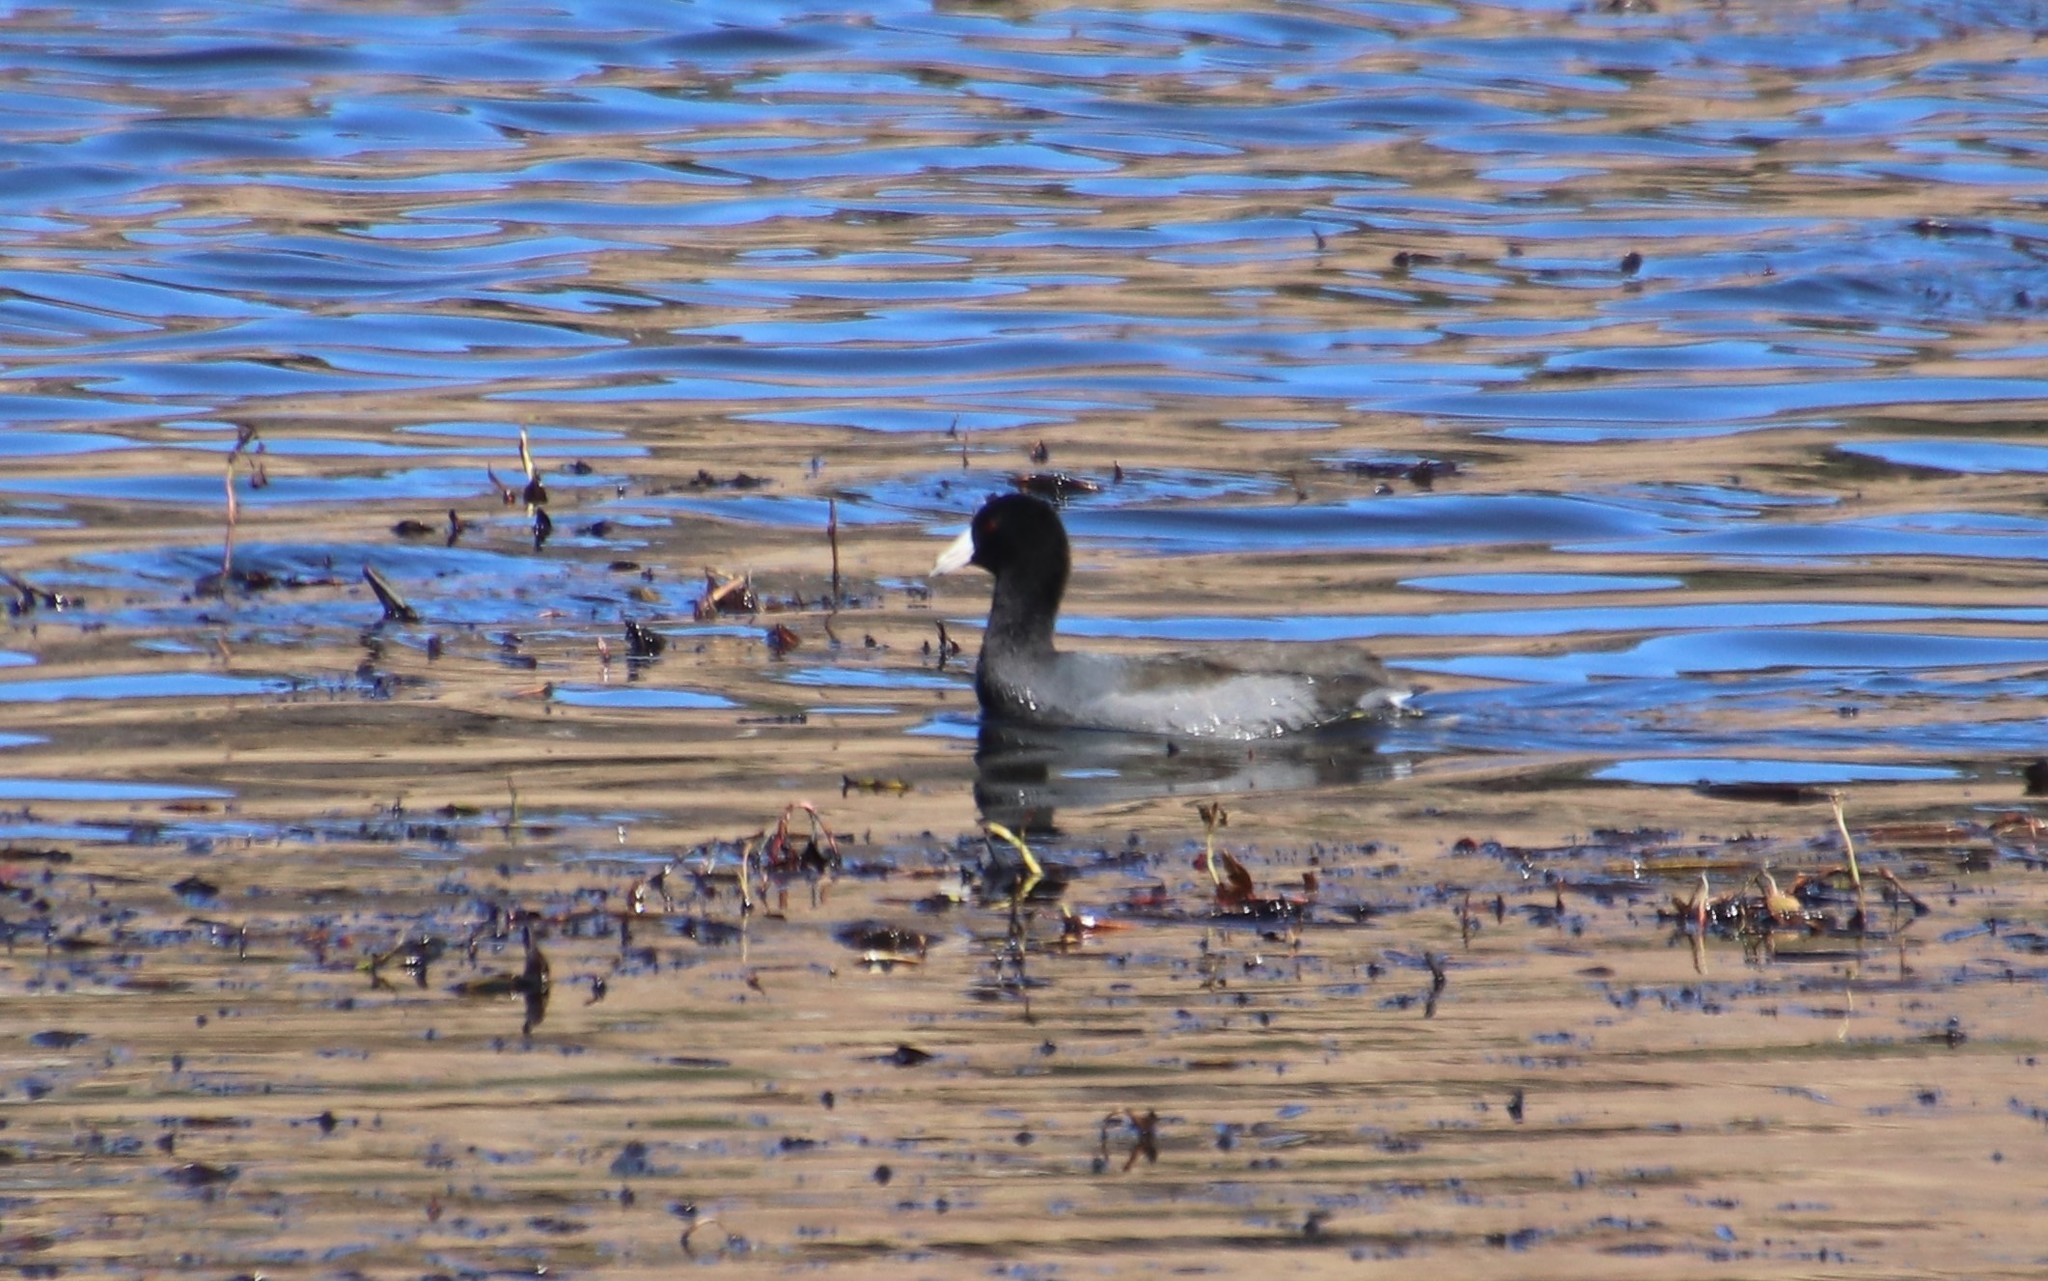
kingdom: Animalia
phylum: Chordata
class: Aves
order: Gruiformes
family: Rallidae
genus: Fulica
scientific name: Fulica americana
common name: American coot
